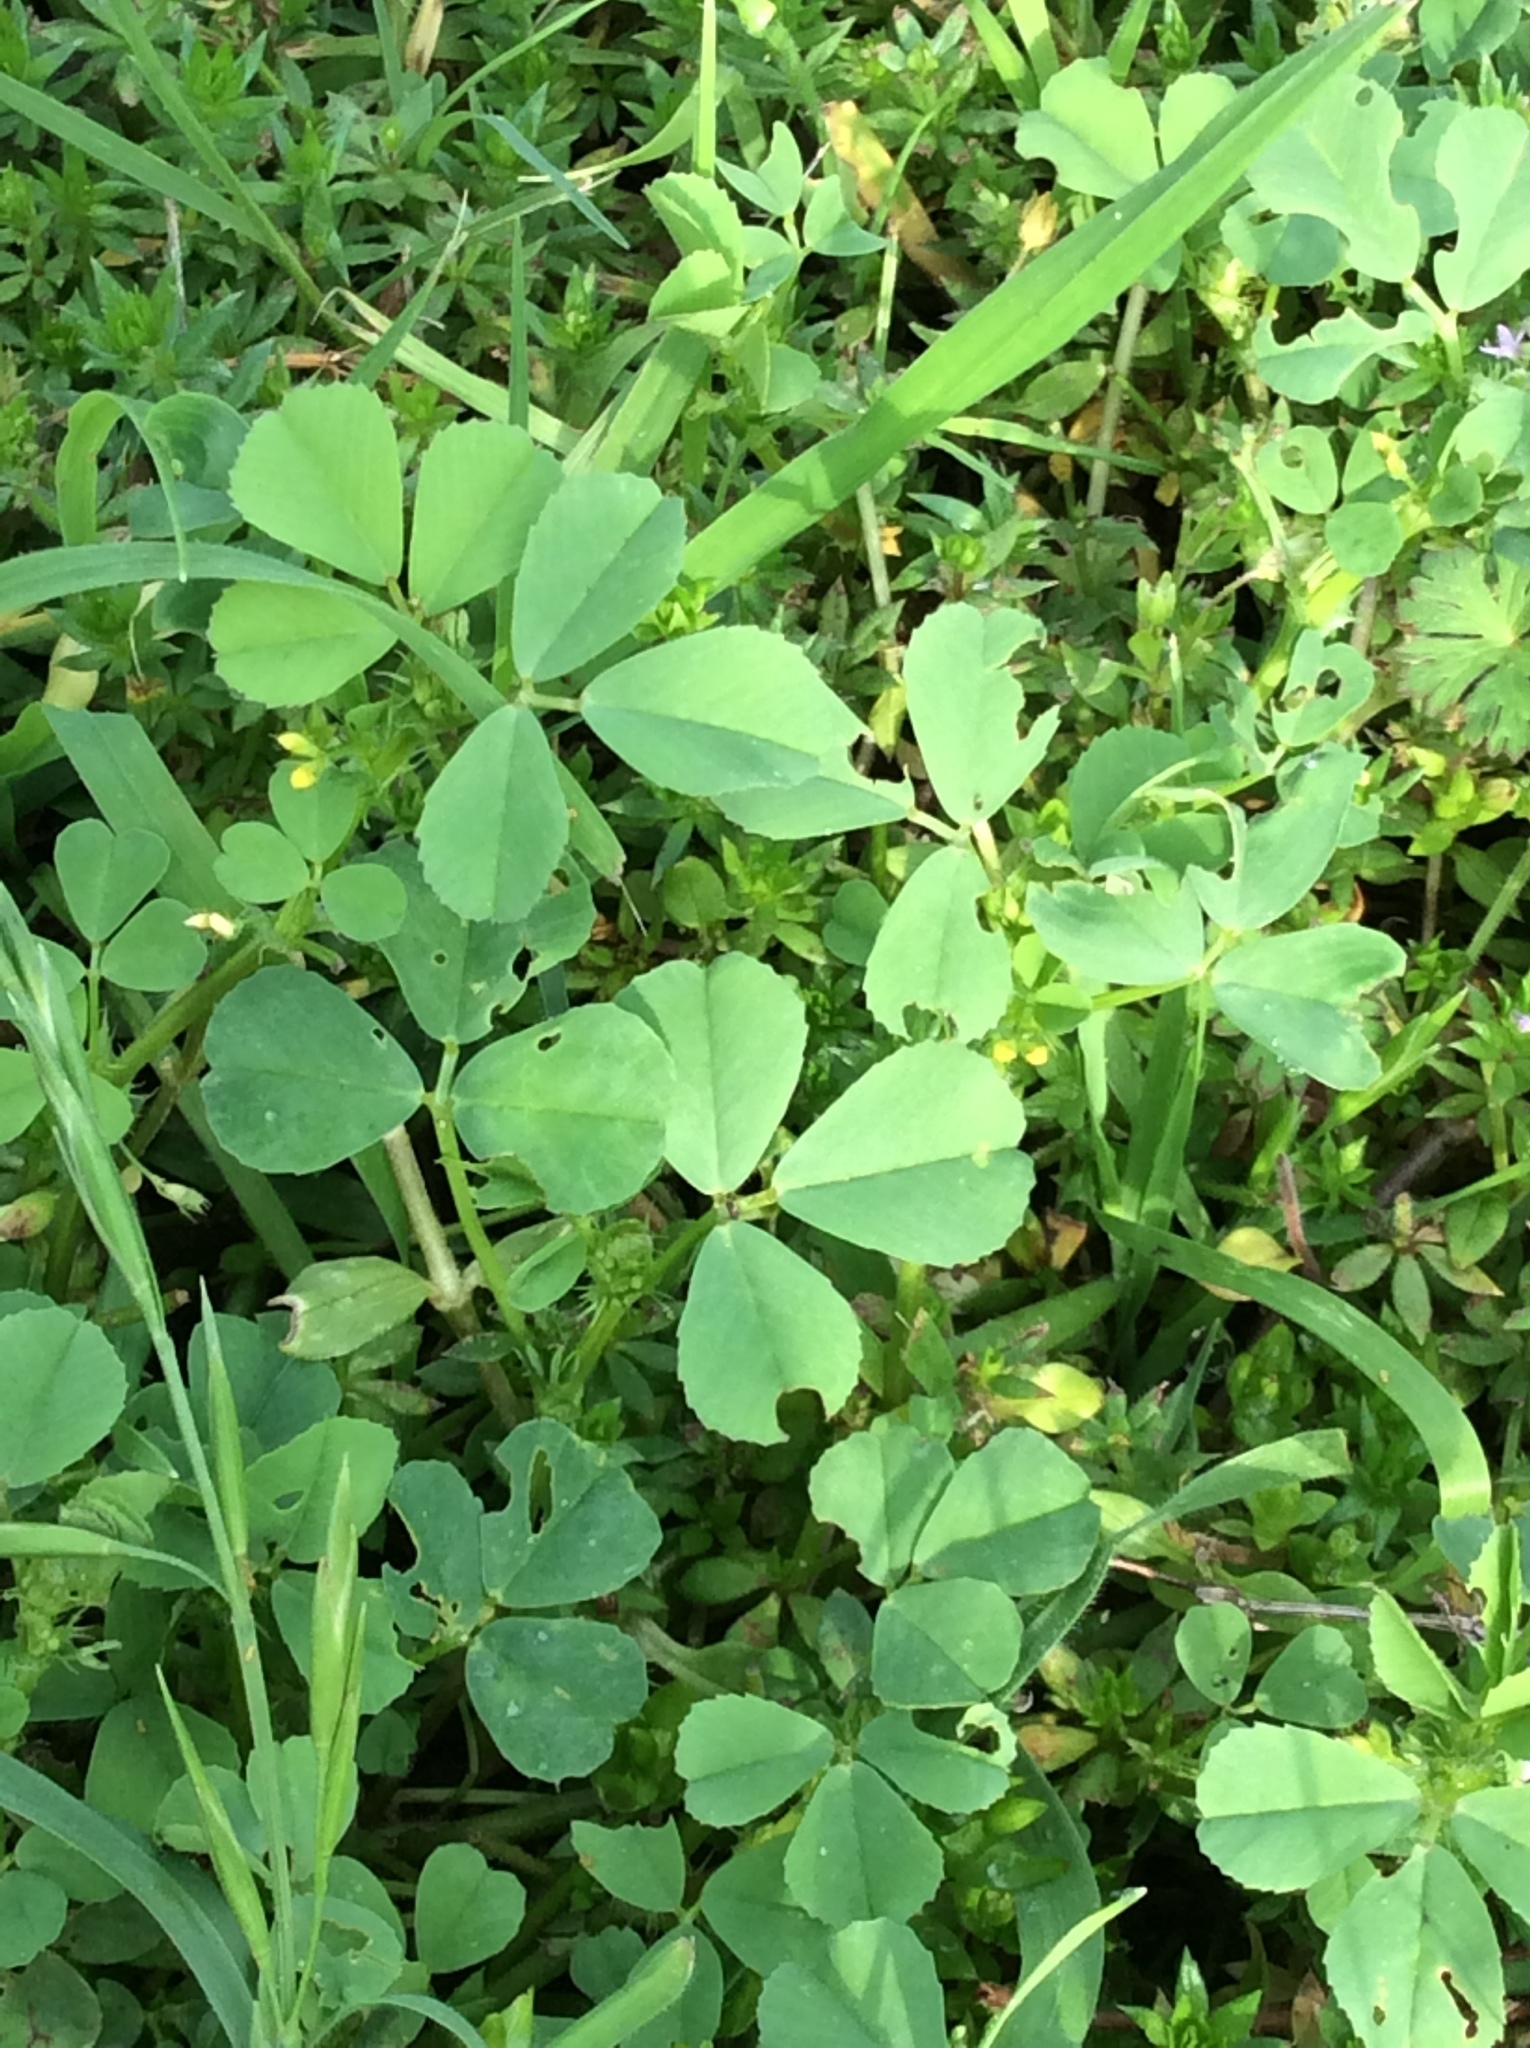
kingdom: Plantae
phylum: Tracheophyta
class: Magnoliopsida
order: Fabales
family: Fabaceae
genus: Medicago
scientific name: Medicago polymorpha
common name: Burclover
